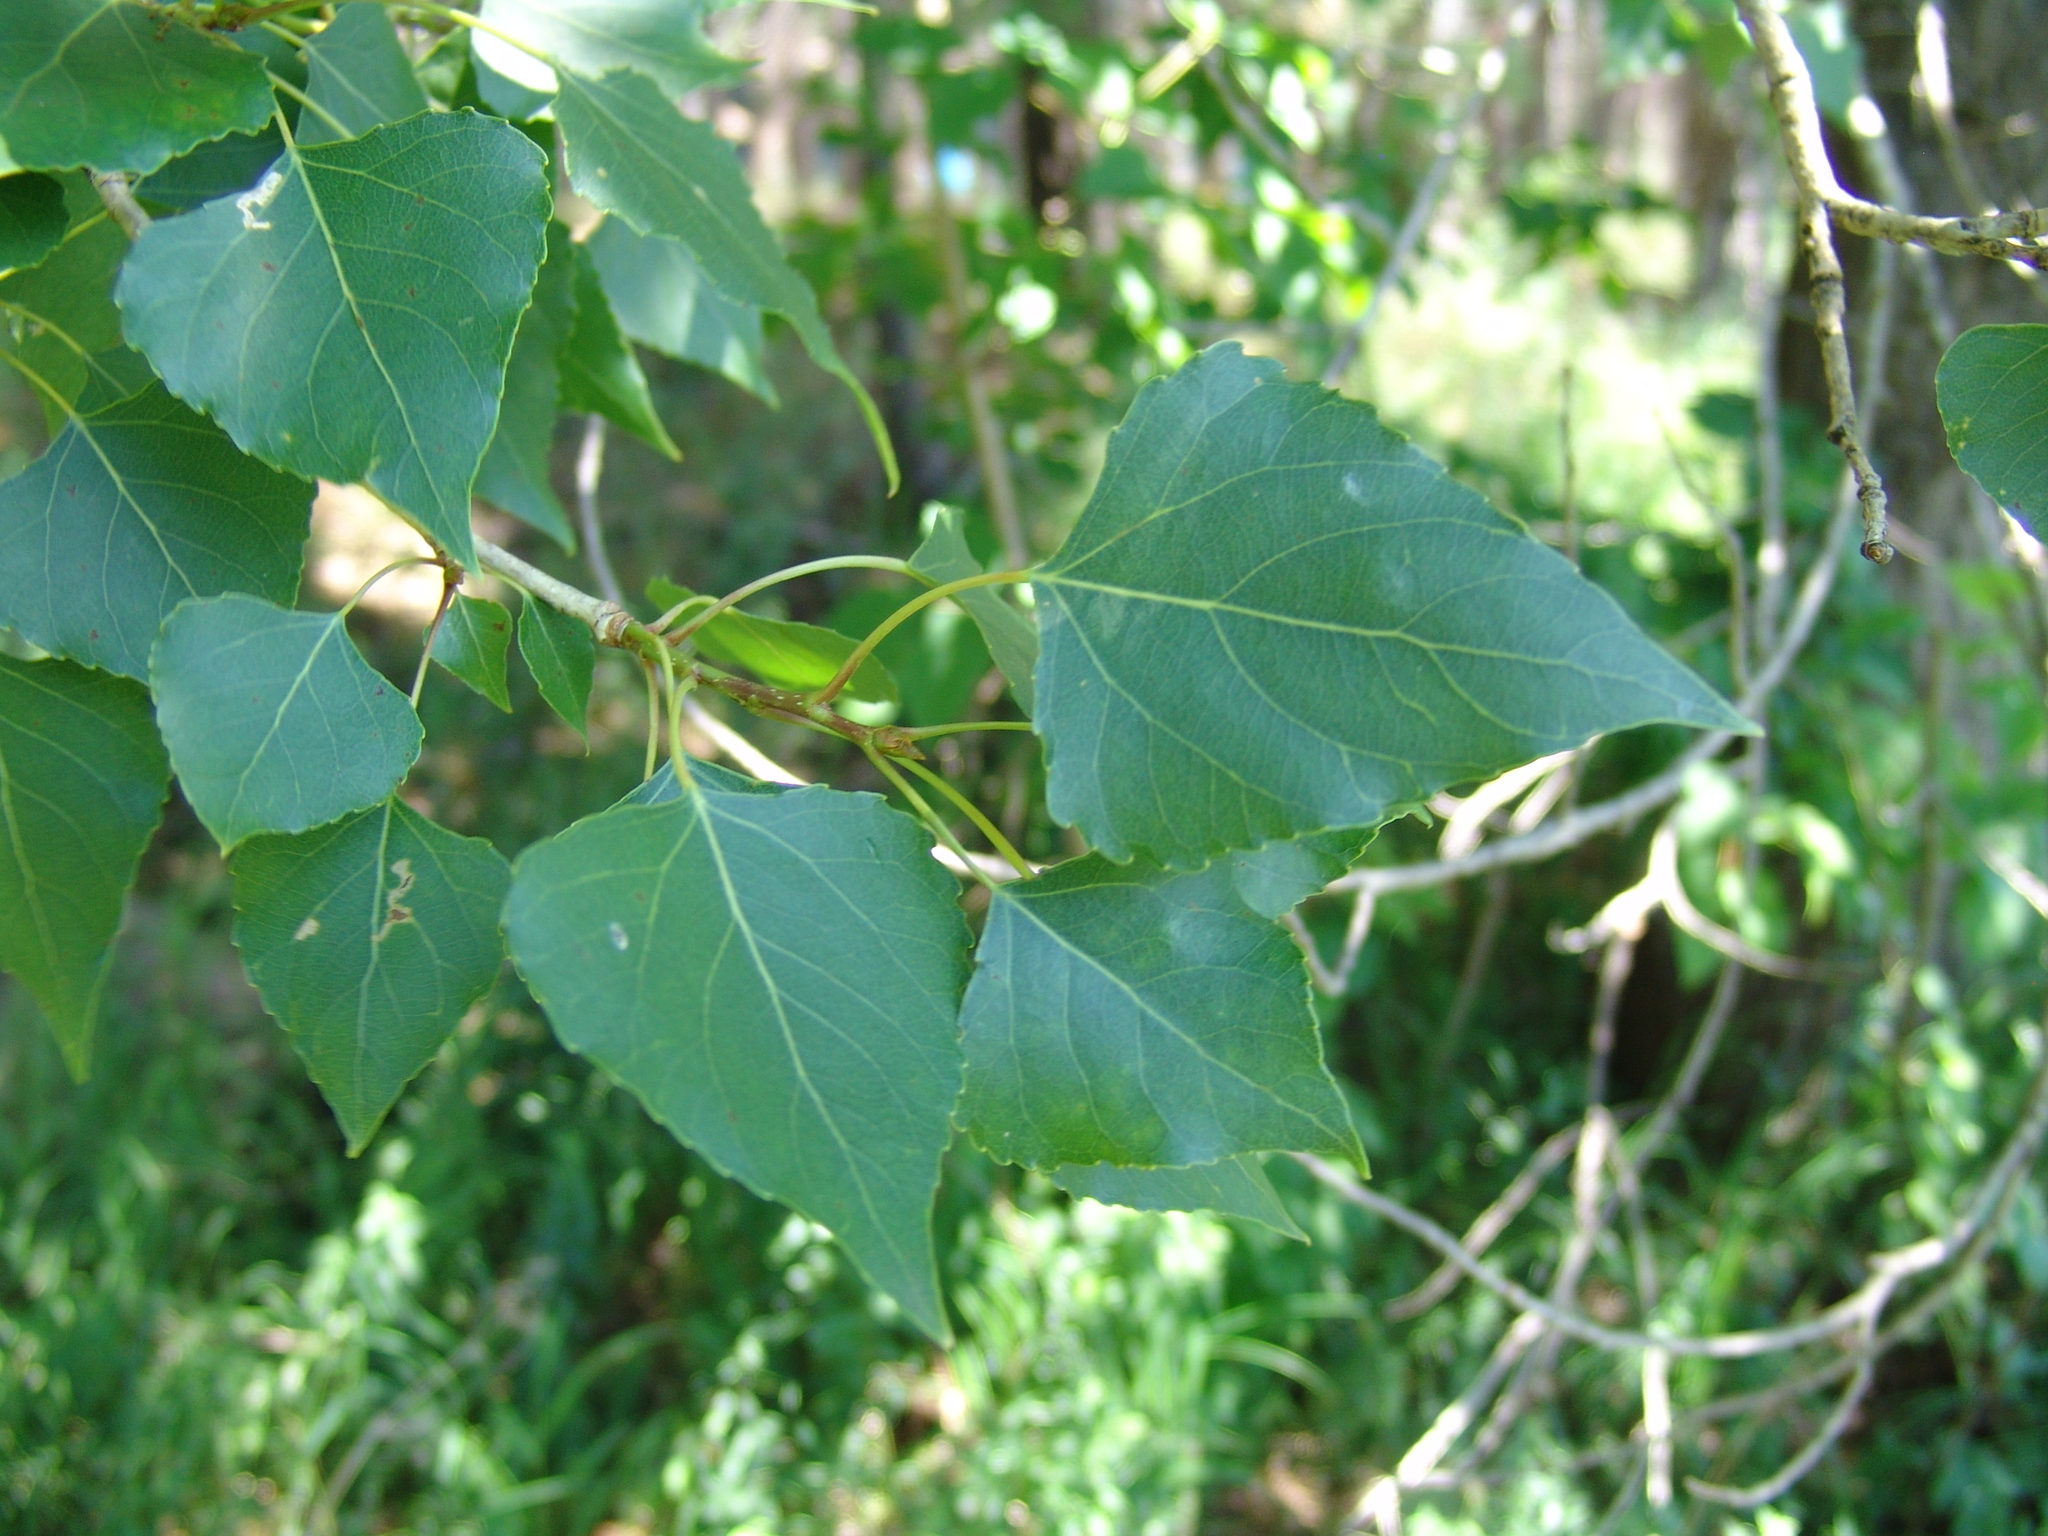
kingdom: Plantae
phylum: Tracheophyta
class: Magnoliopsida
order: Malpighiales
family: Salicaceae
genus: Populus
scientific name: Populus nigra
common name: Black poplar
